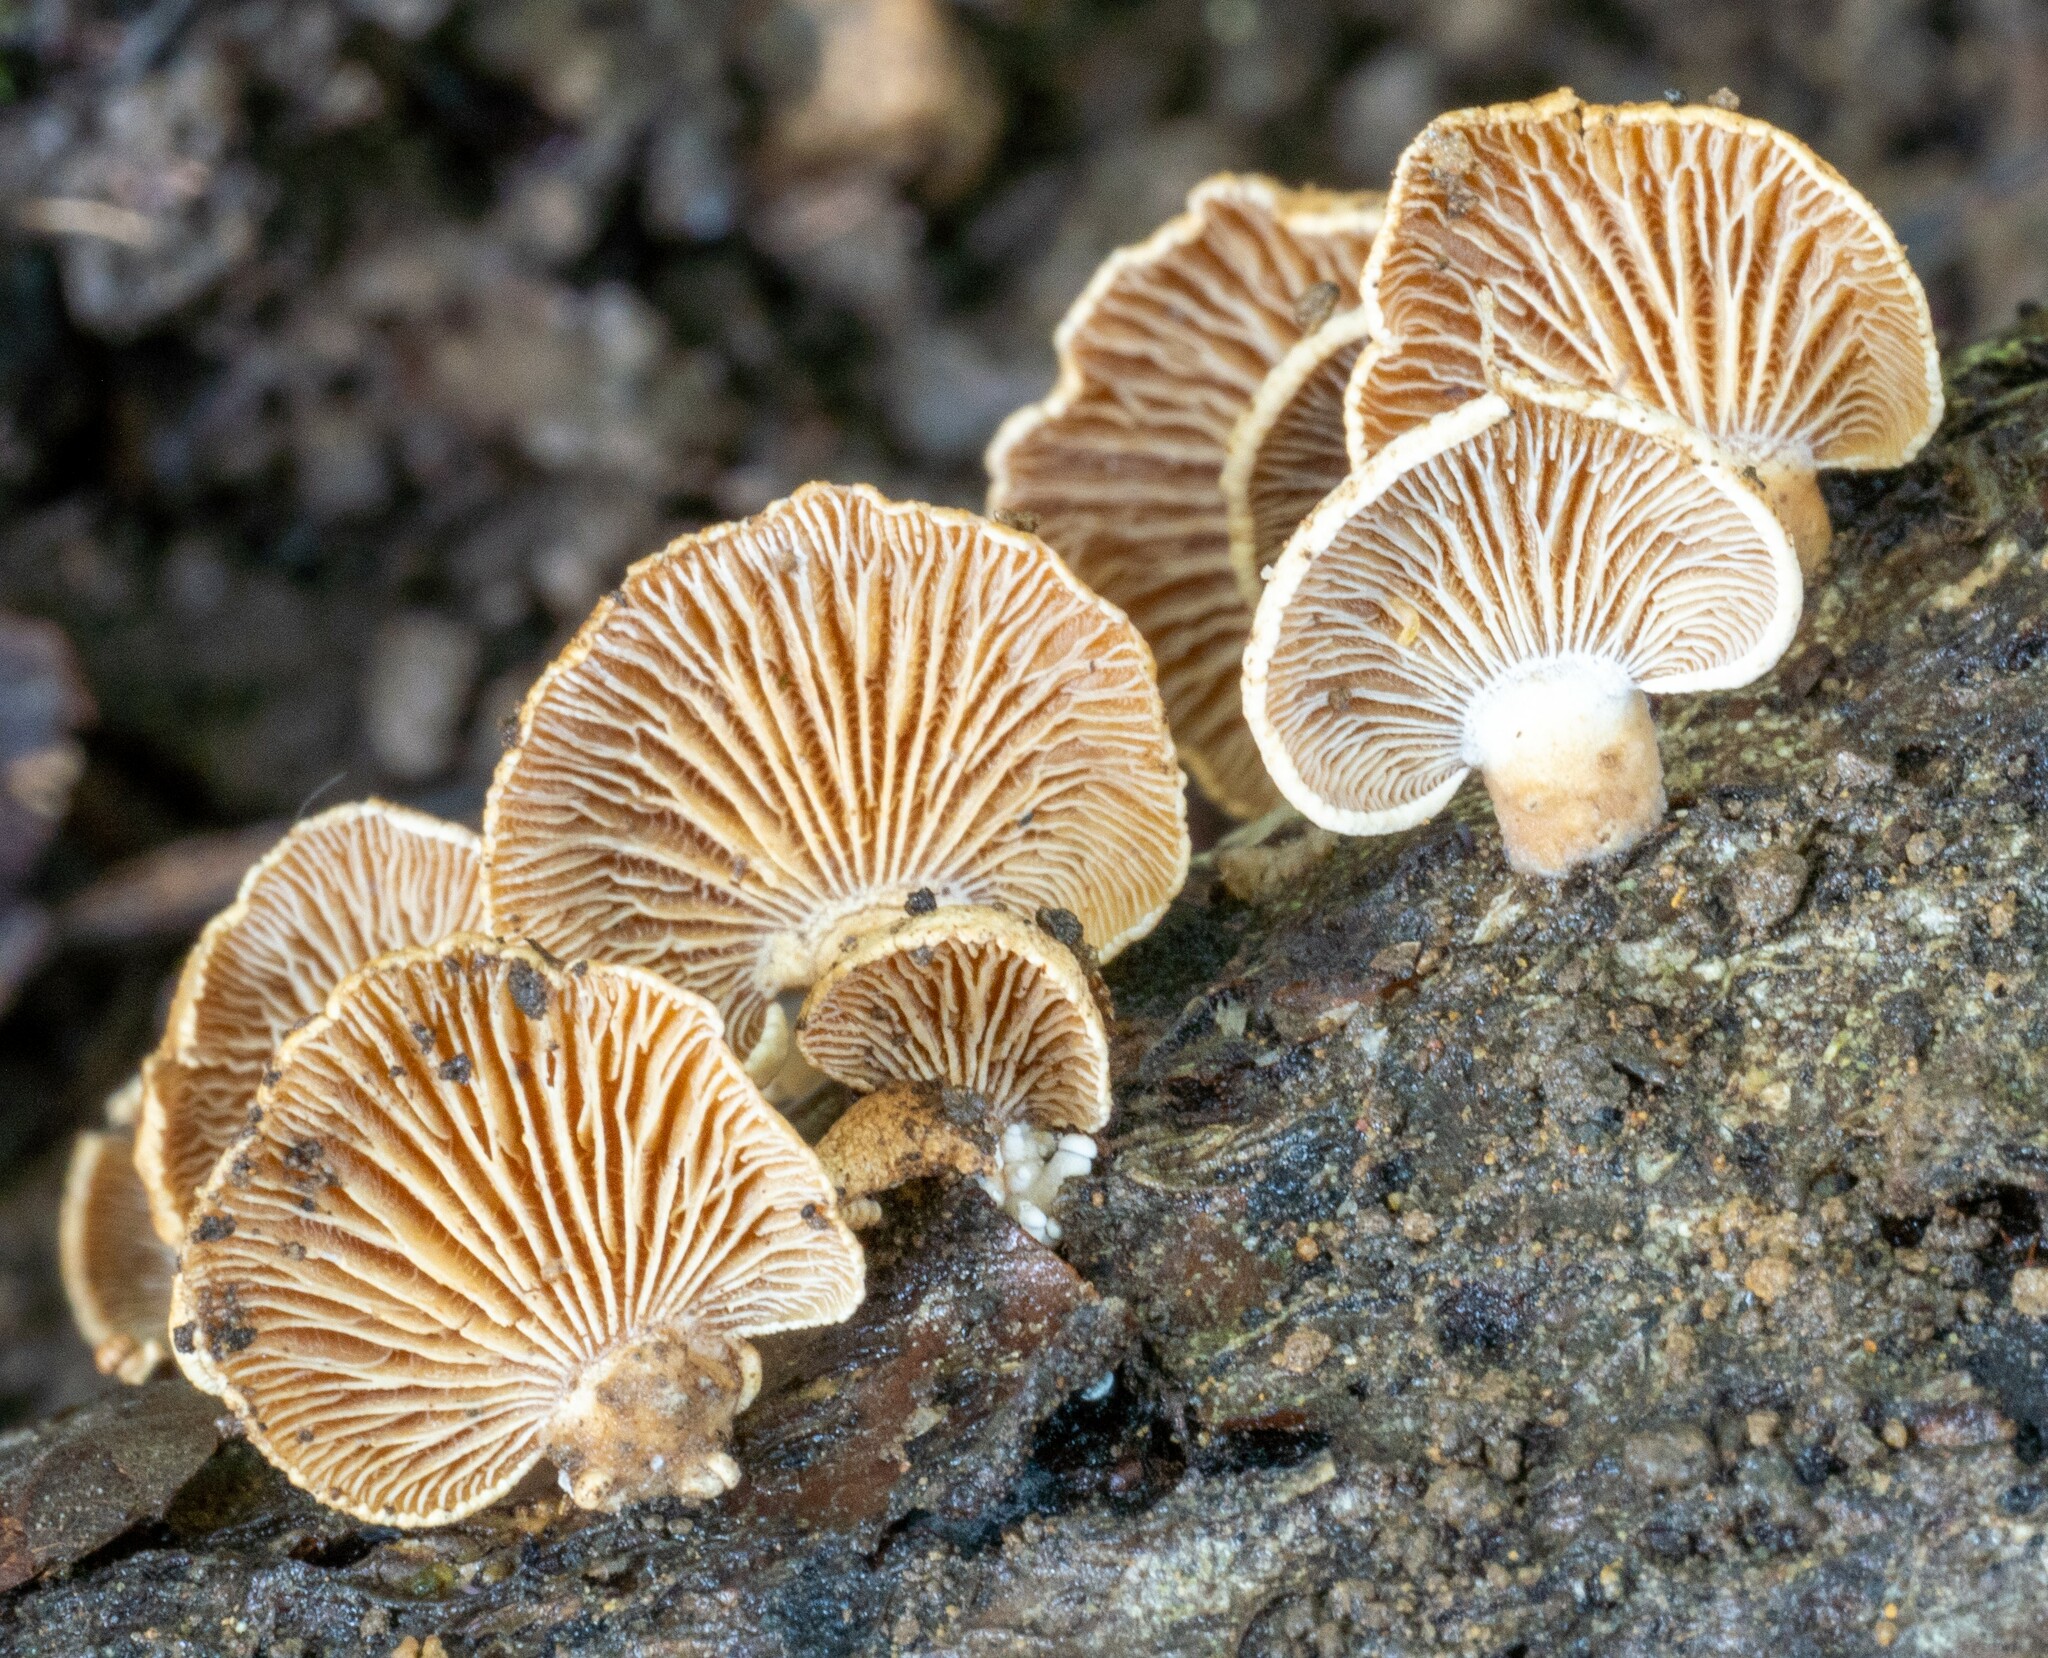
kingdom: Fungi
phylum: Basidiomycota
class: Agaricomycetes
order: Agaricales
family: Mycenaceae
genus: Panellus
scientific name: Panellus stipticus
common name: Bitter oysterling
